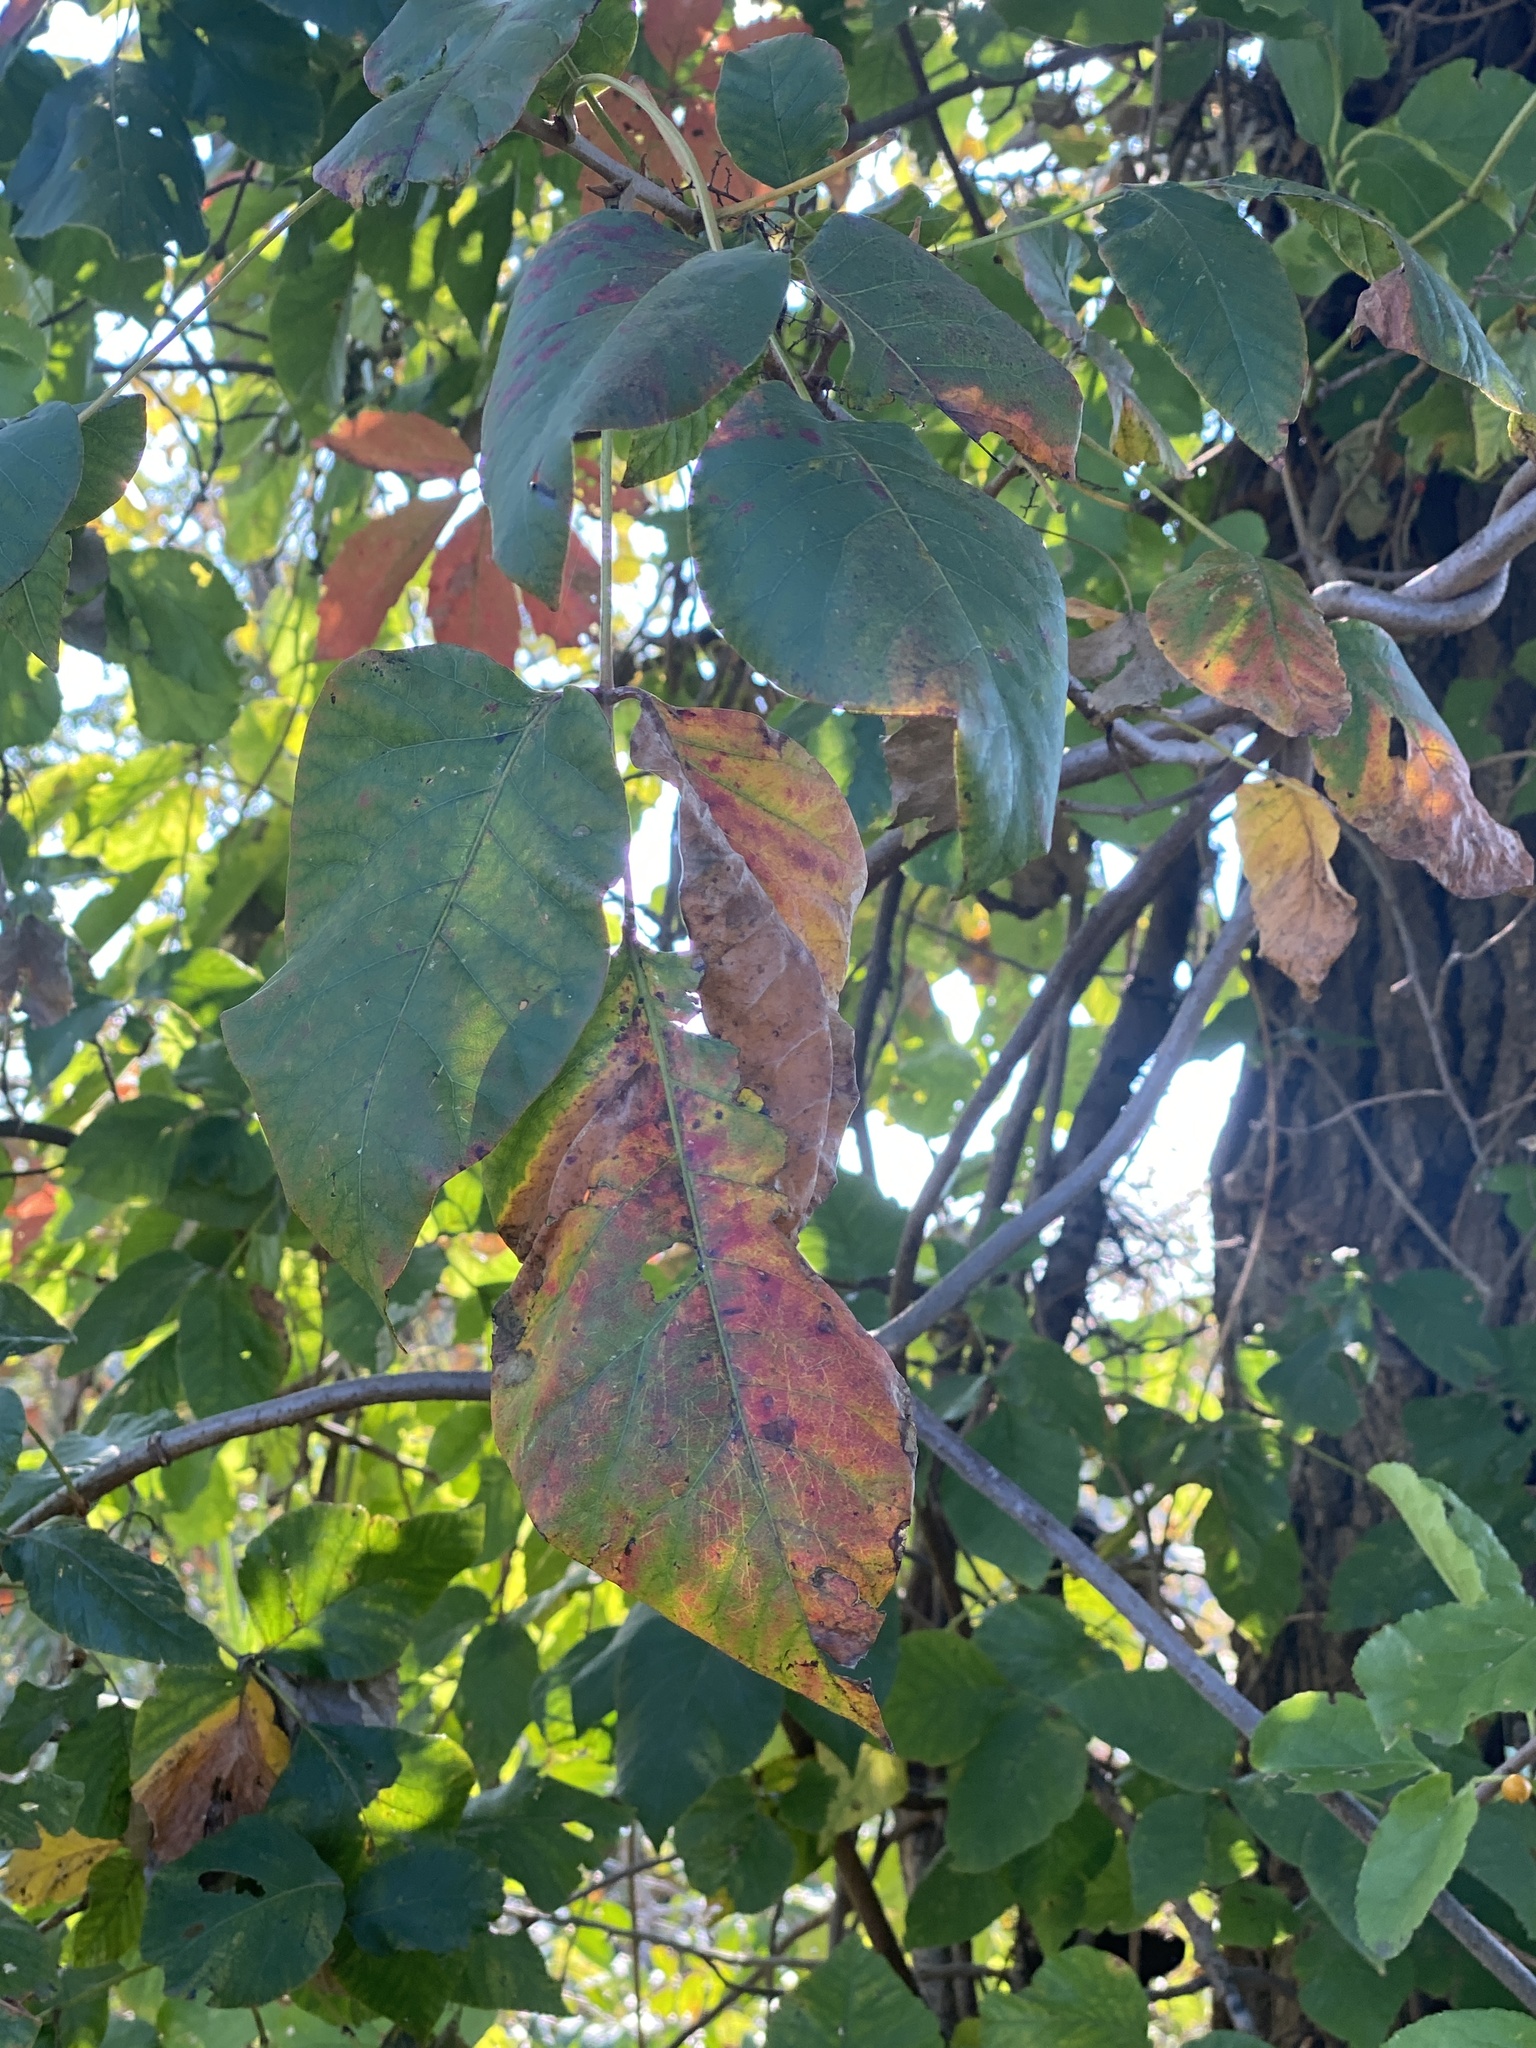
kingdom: Plantae
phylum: Tracheophyta
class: Magnoliopsida
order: Sapindales
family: Anacardiaceae
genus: Toxicodendron
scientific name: Toxicodendron radicans
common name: Poison ivy
